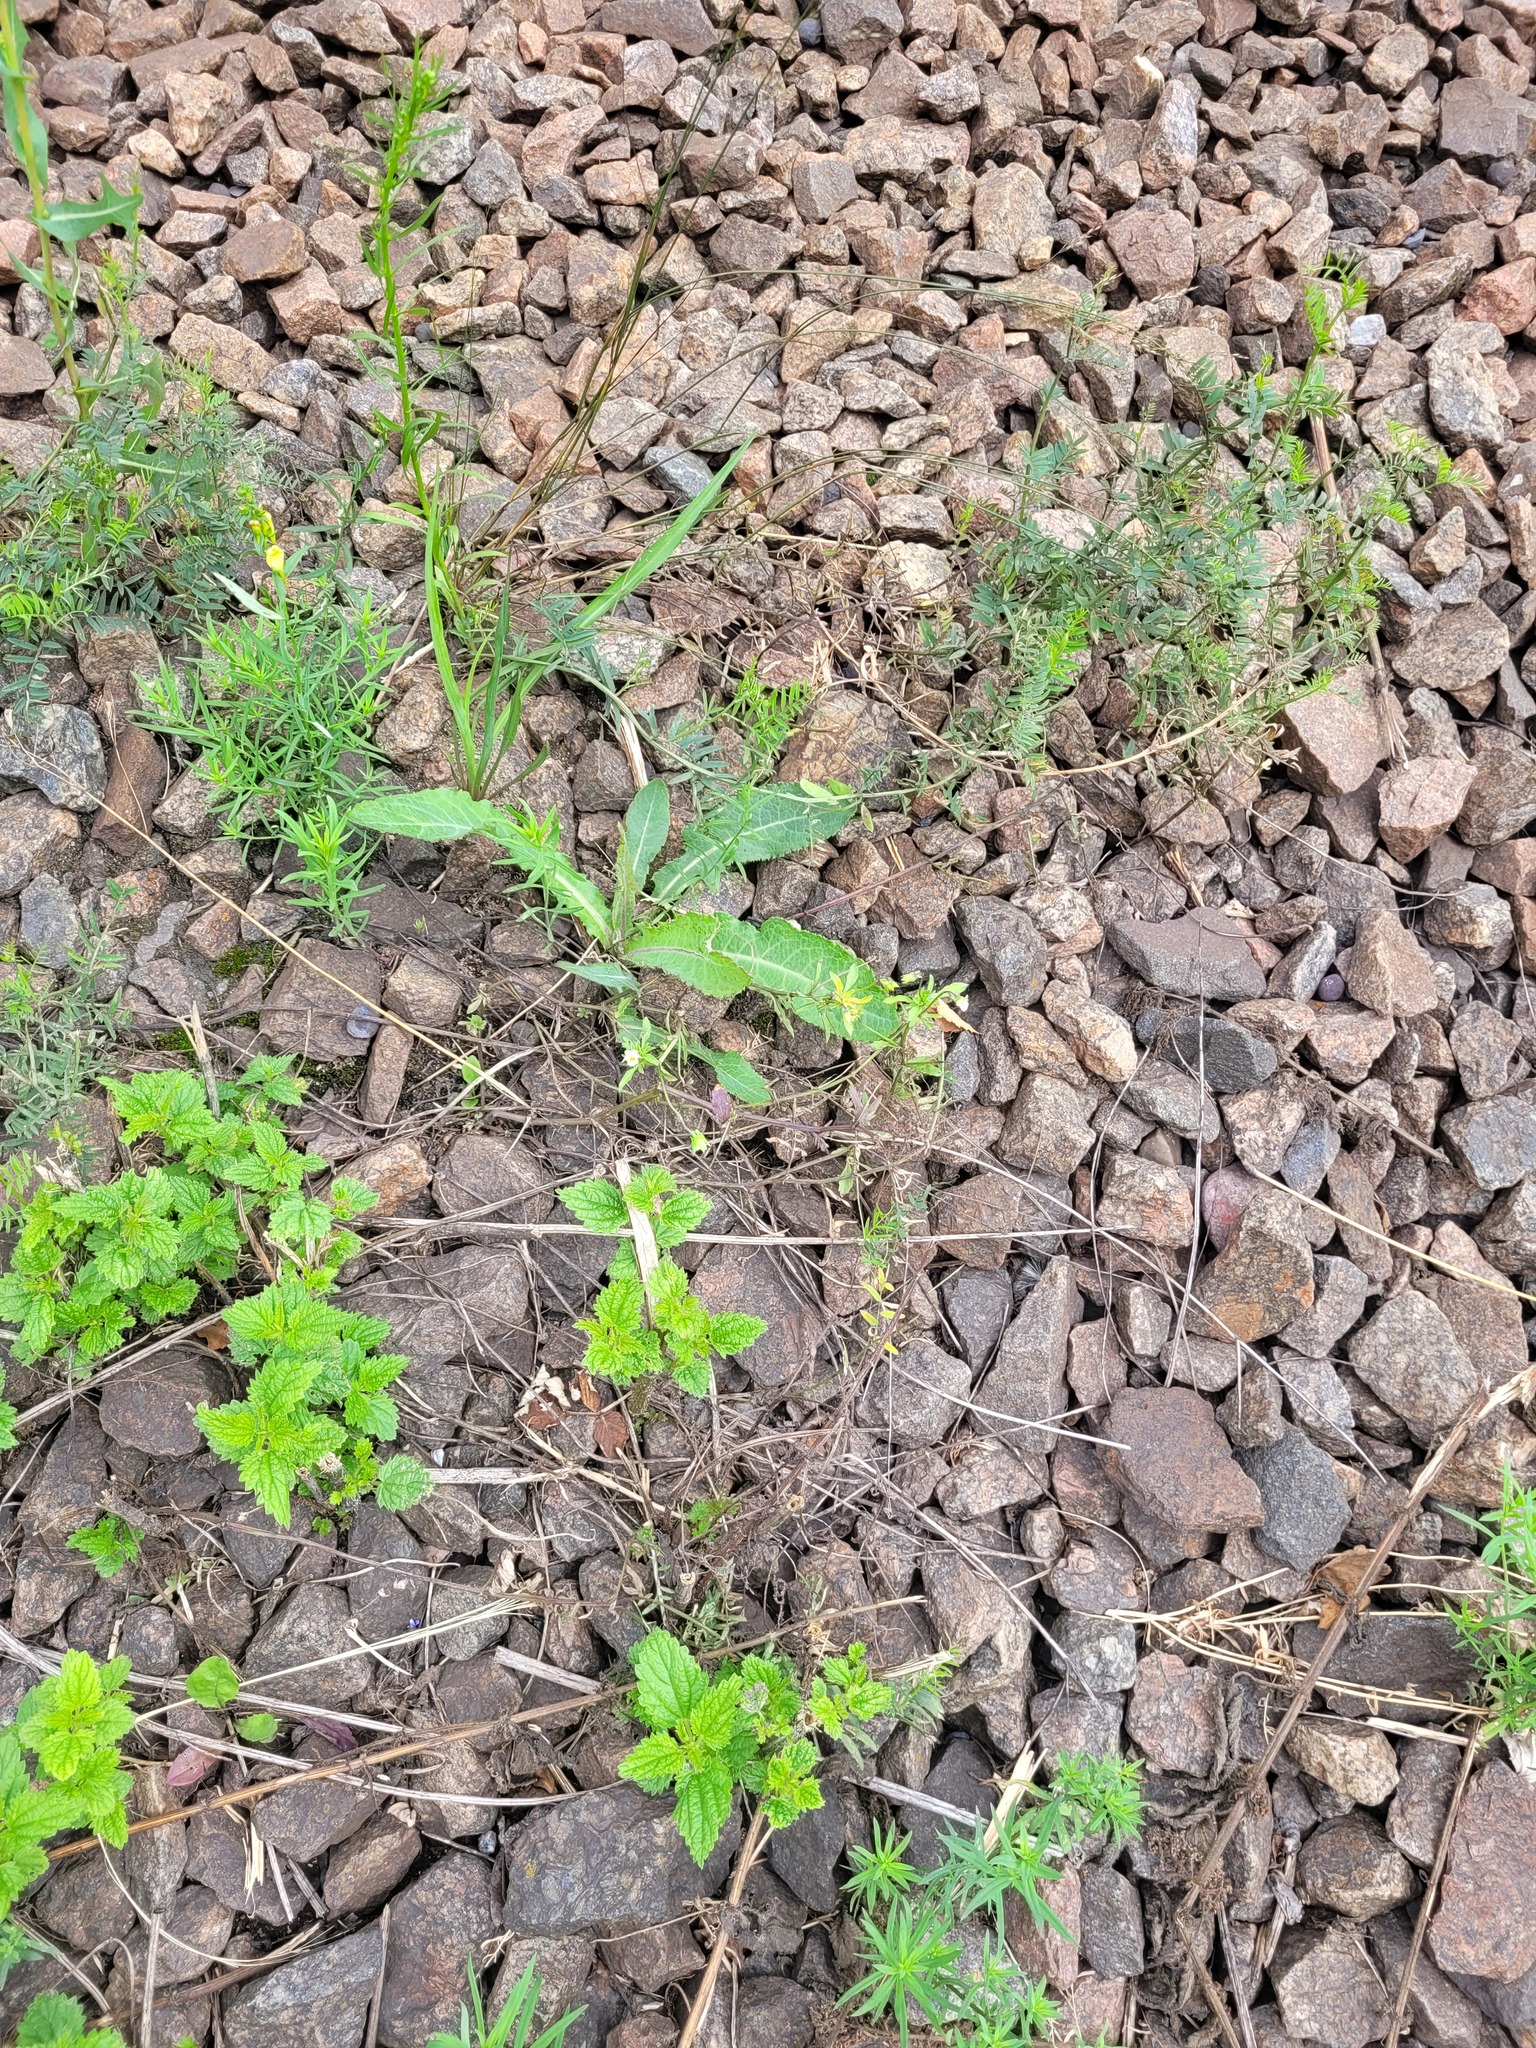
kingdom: Plantae
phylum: Tracheophyta
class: Magnoliopsida
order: Malpighiales
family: Violaceae
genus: Viola
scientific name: Viola arvensis
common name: Field pansy
